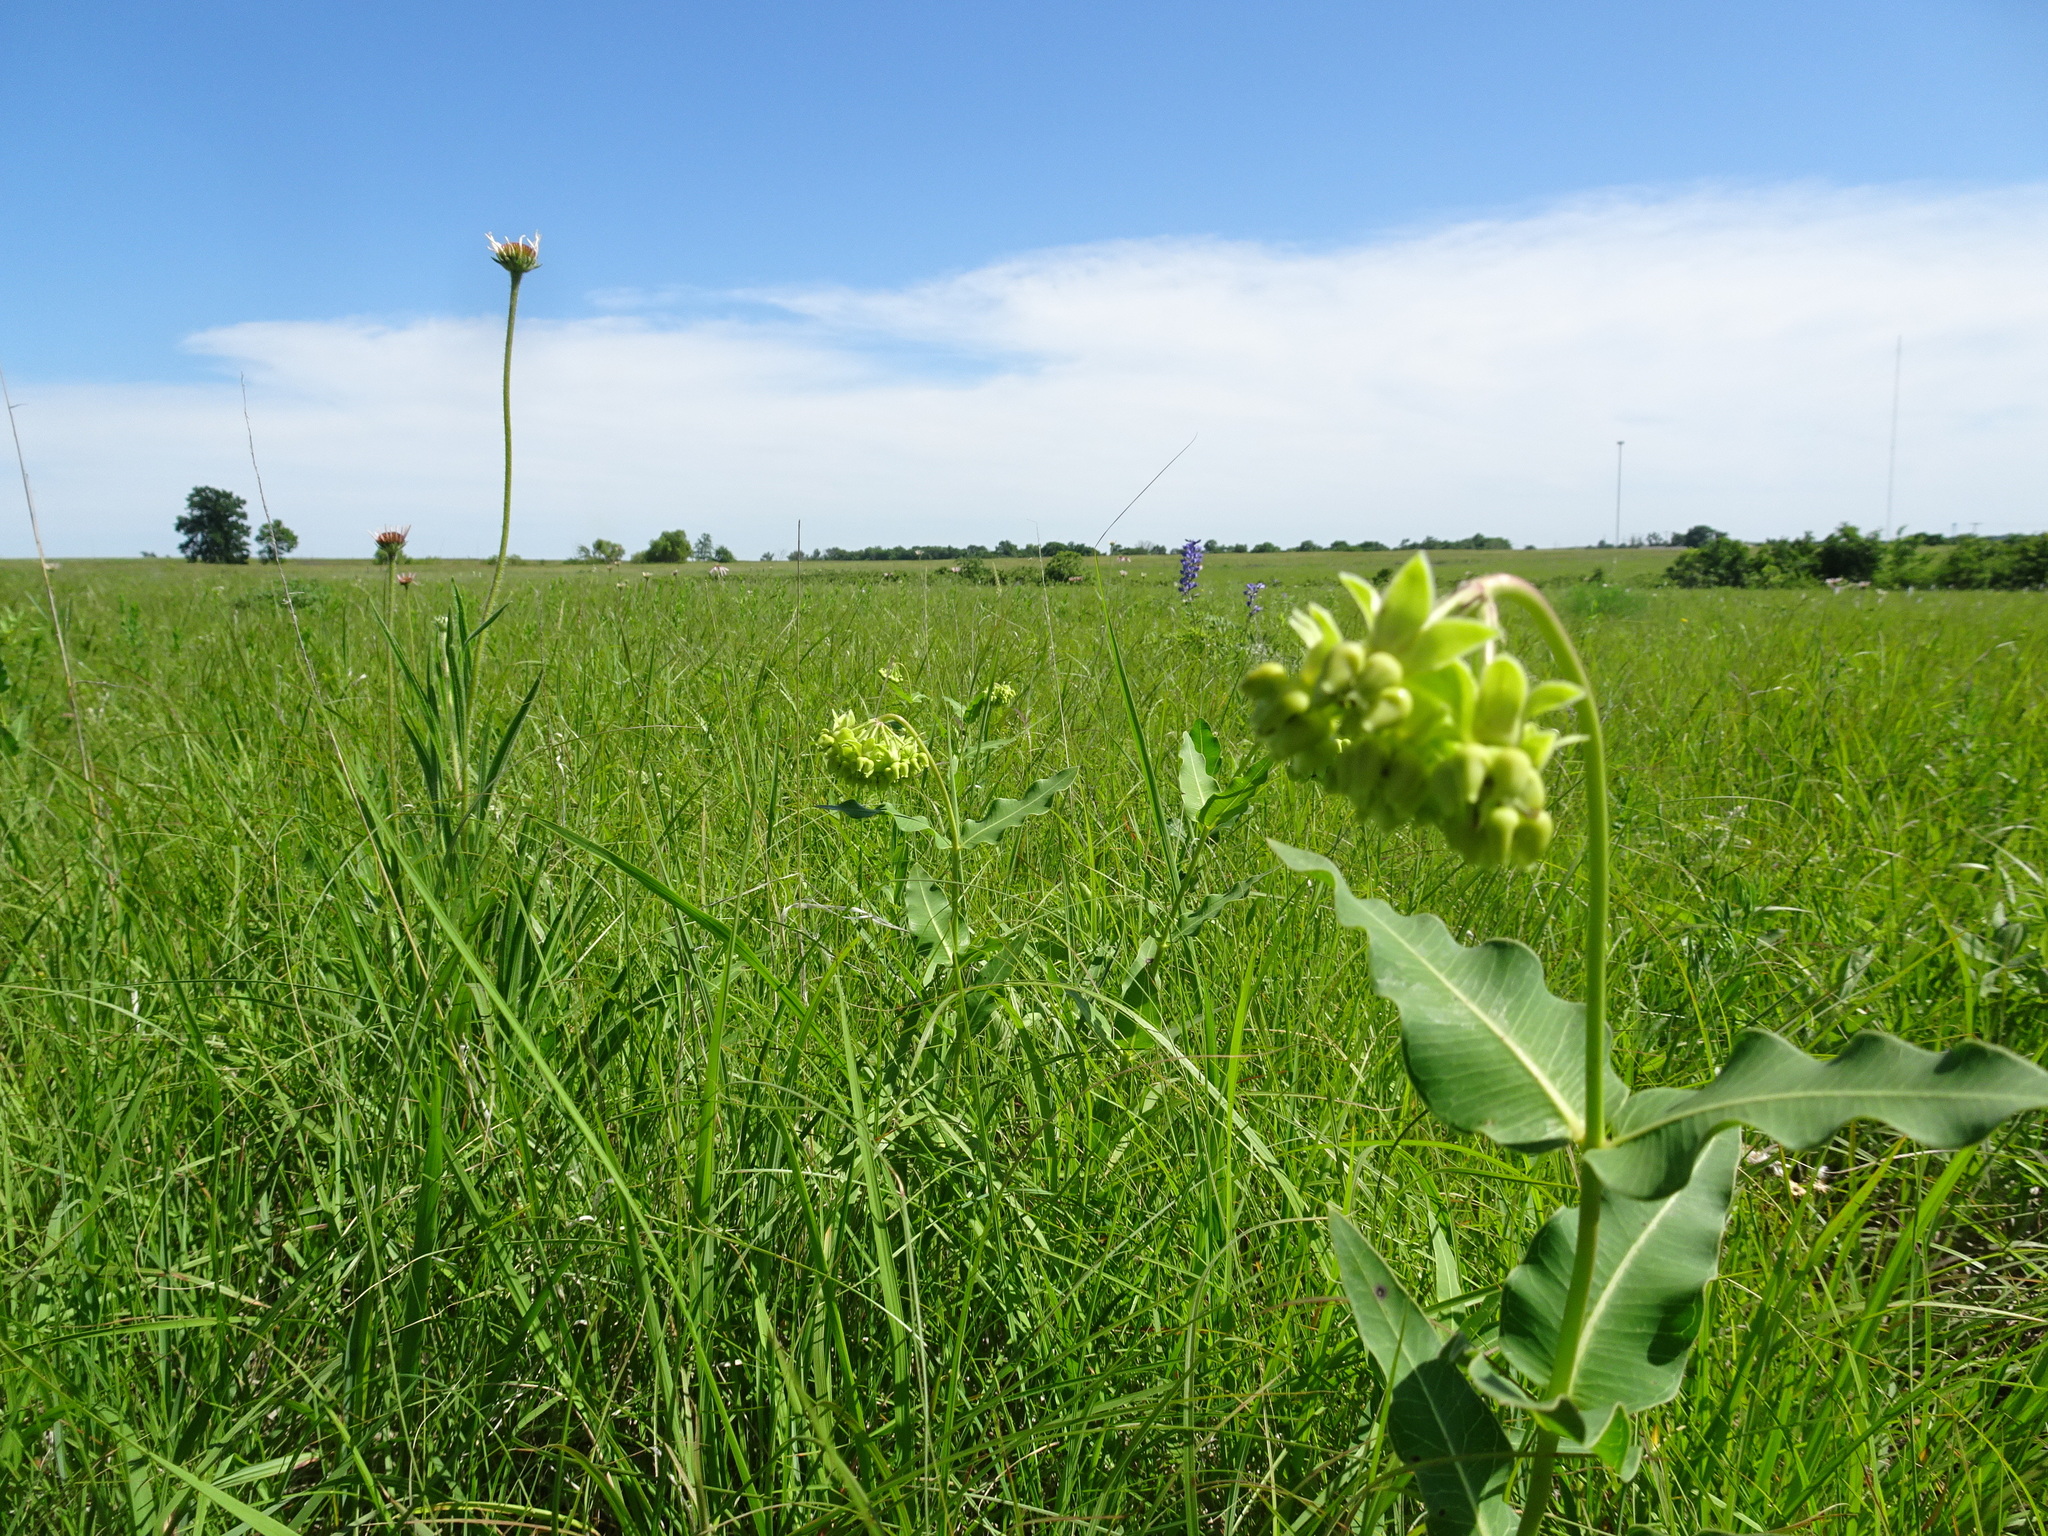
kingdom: Plantae
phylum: Tracheophyta
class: Magnoliopsida
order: Gentianales
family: Apocynaceae
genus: Asclepias
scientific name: Asclepias meadii
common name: Mead's milkweed
